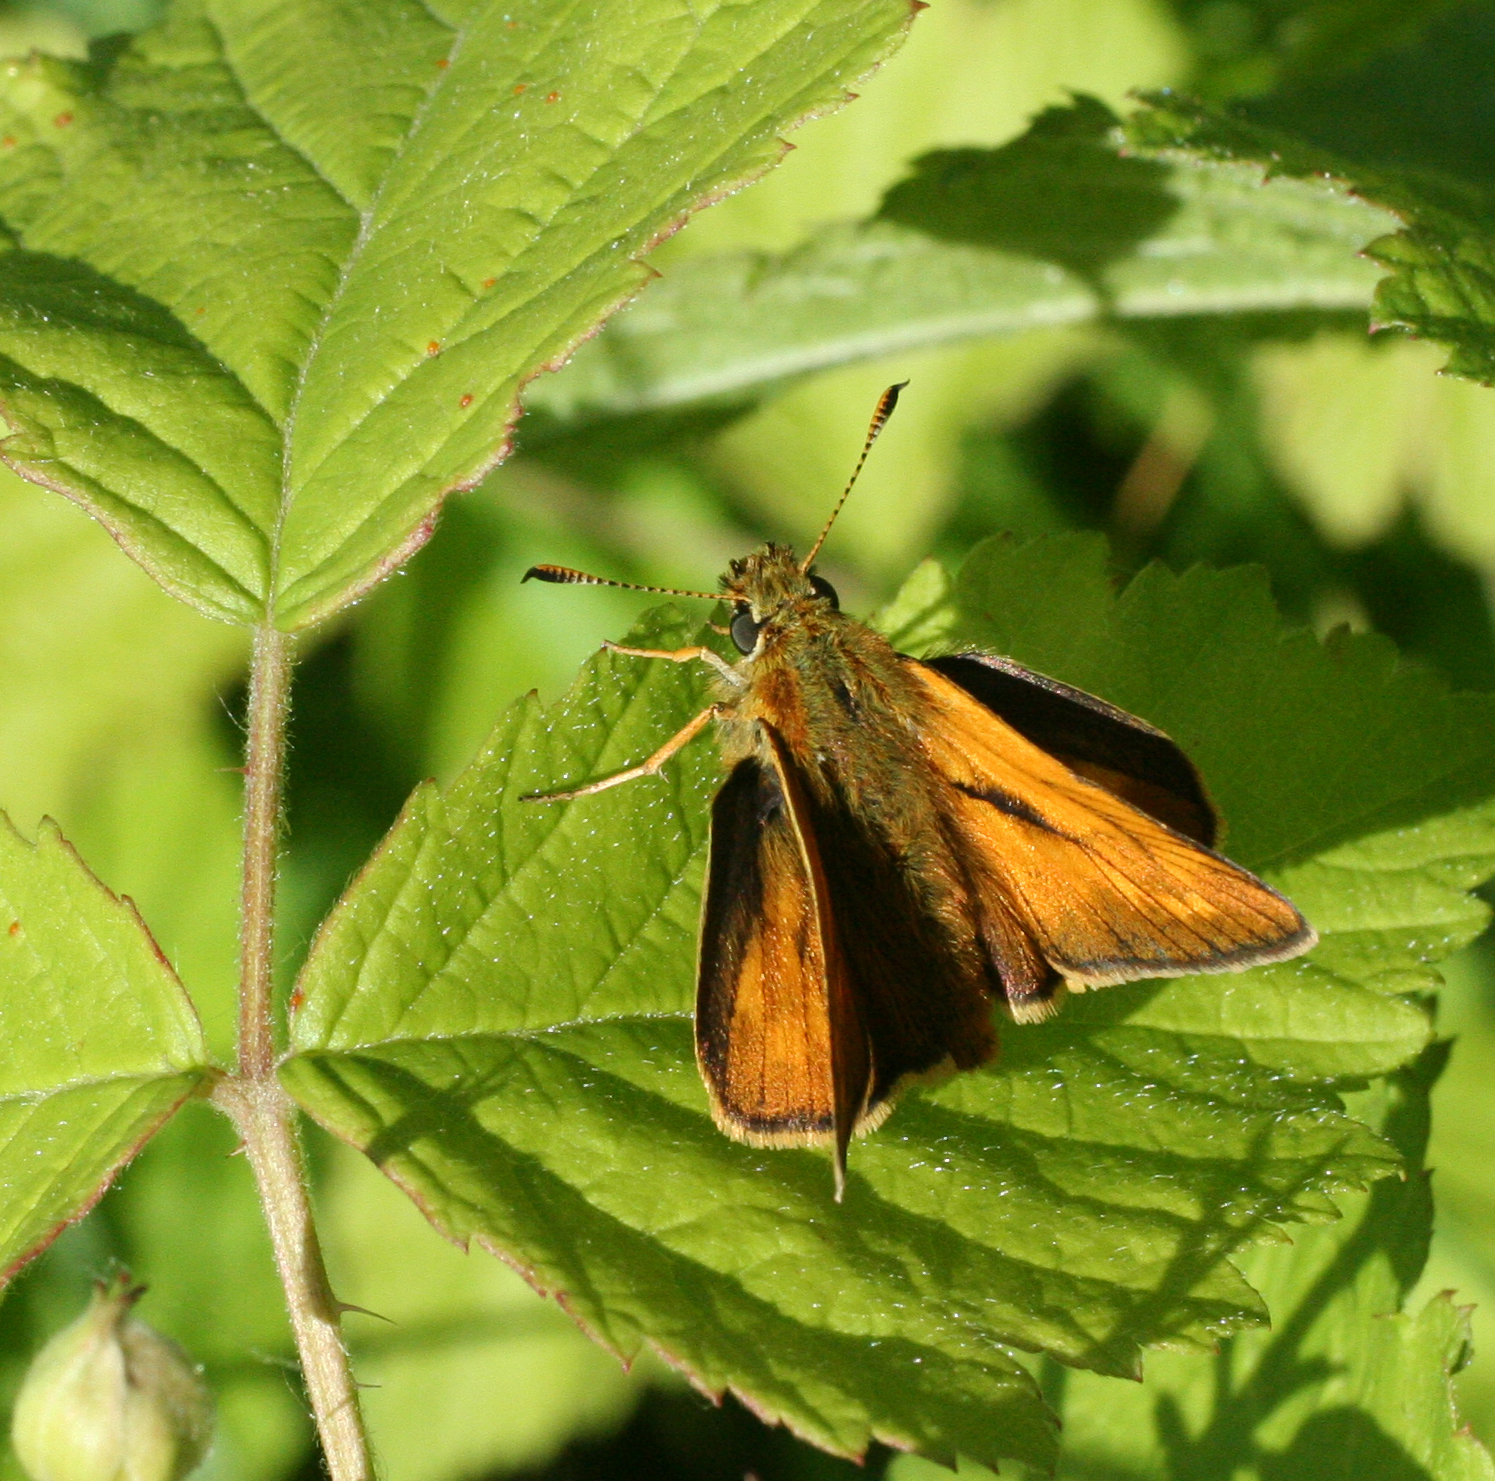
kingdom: Animalia
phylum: Arthropoda
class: Insecta
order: Lepidoptera
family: Hesperiidae
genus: Ochlodes
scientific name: Ochlodes venata
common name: Large skipper
